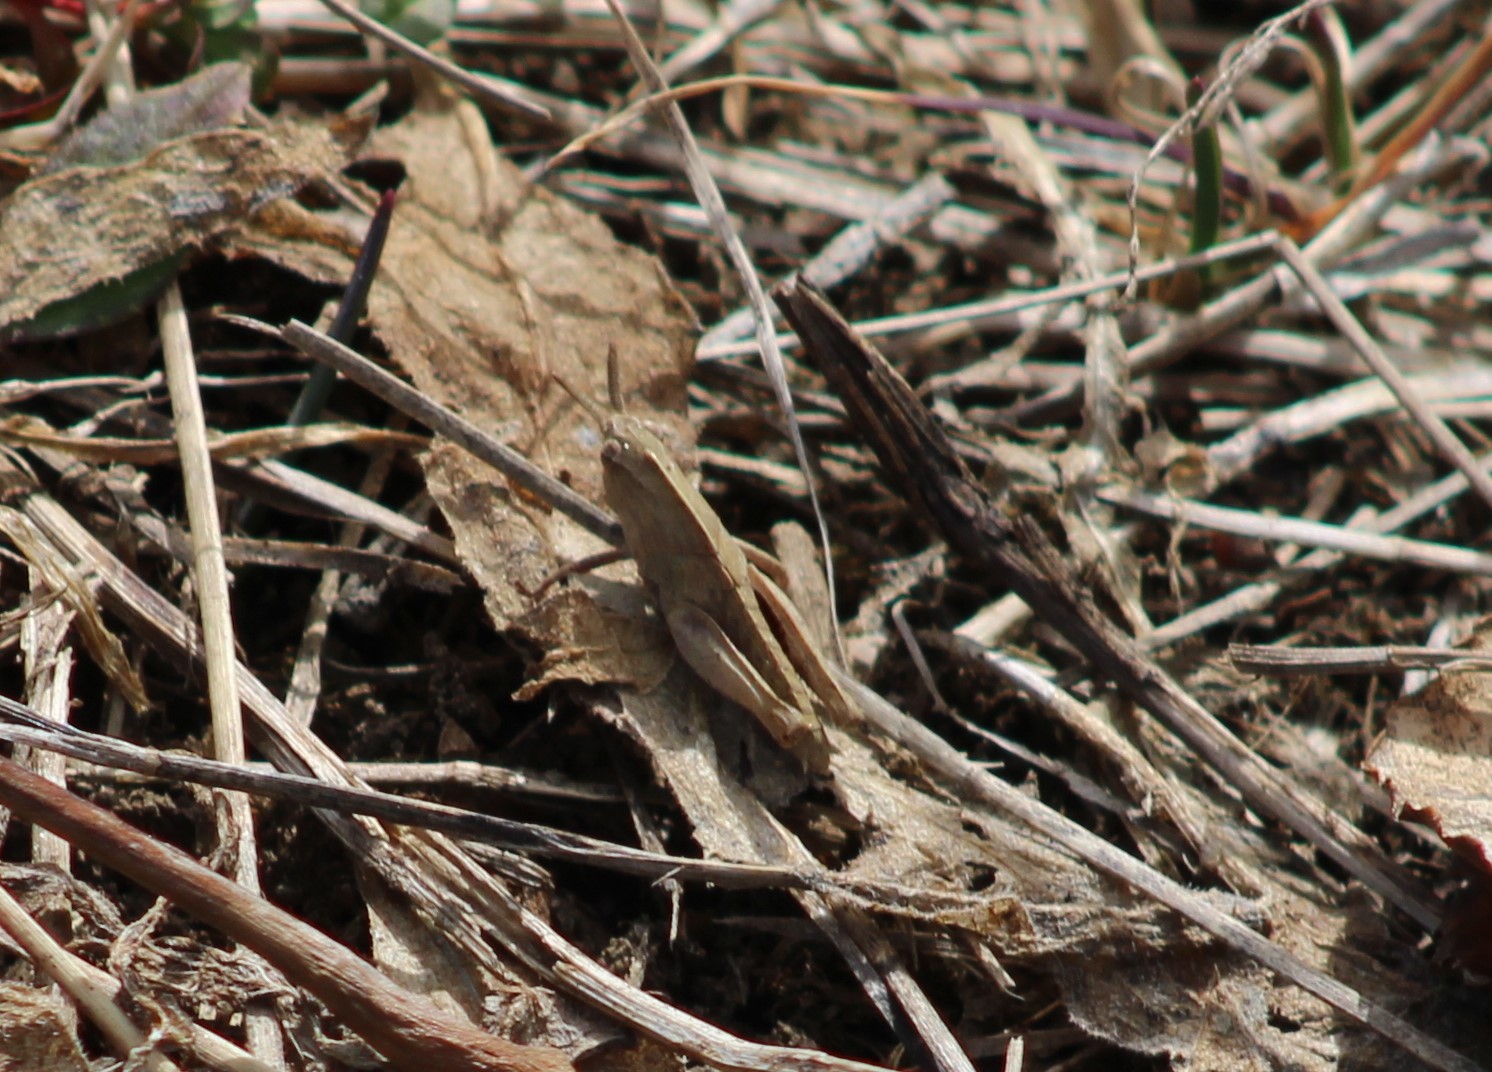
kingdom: Animalia
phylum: Arthropoda
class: Insecta
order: Orthoptera
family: Acrididae
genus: Chortophaga
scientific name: Chortophaga viridifasciata
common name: Green-striped grasshopper
